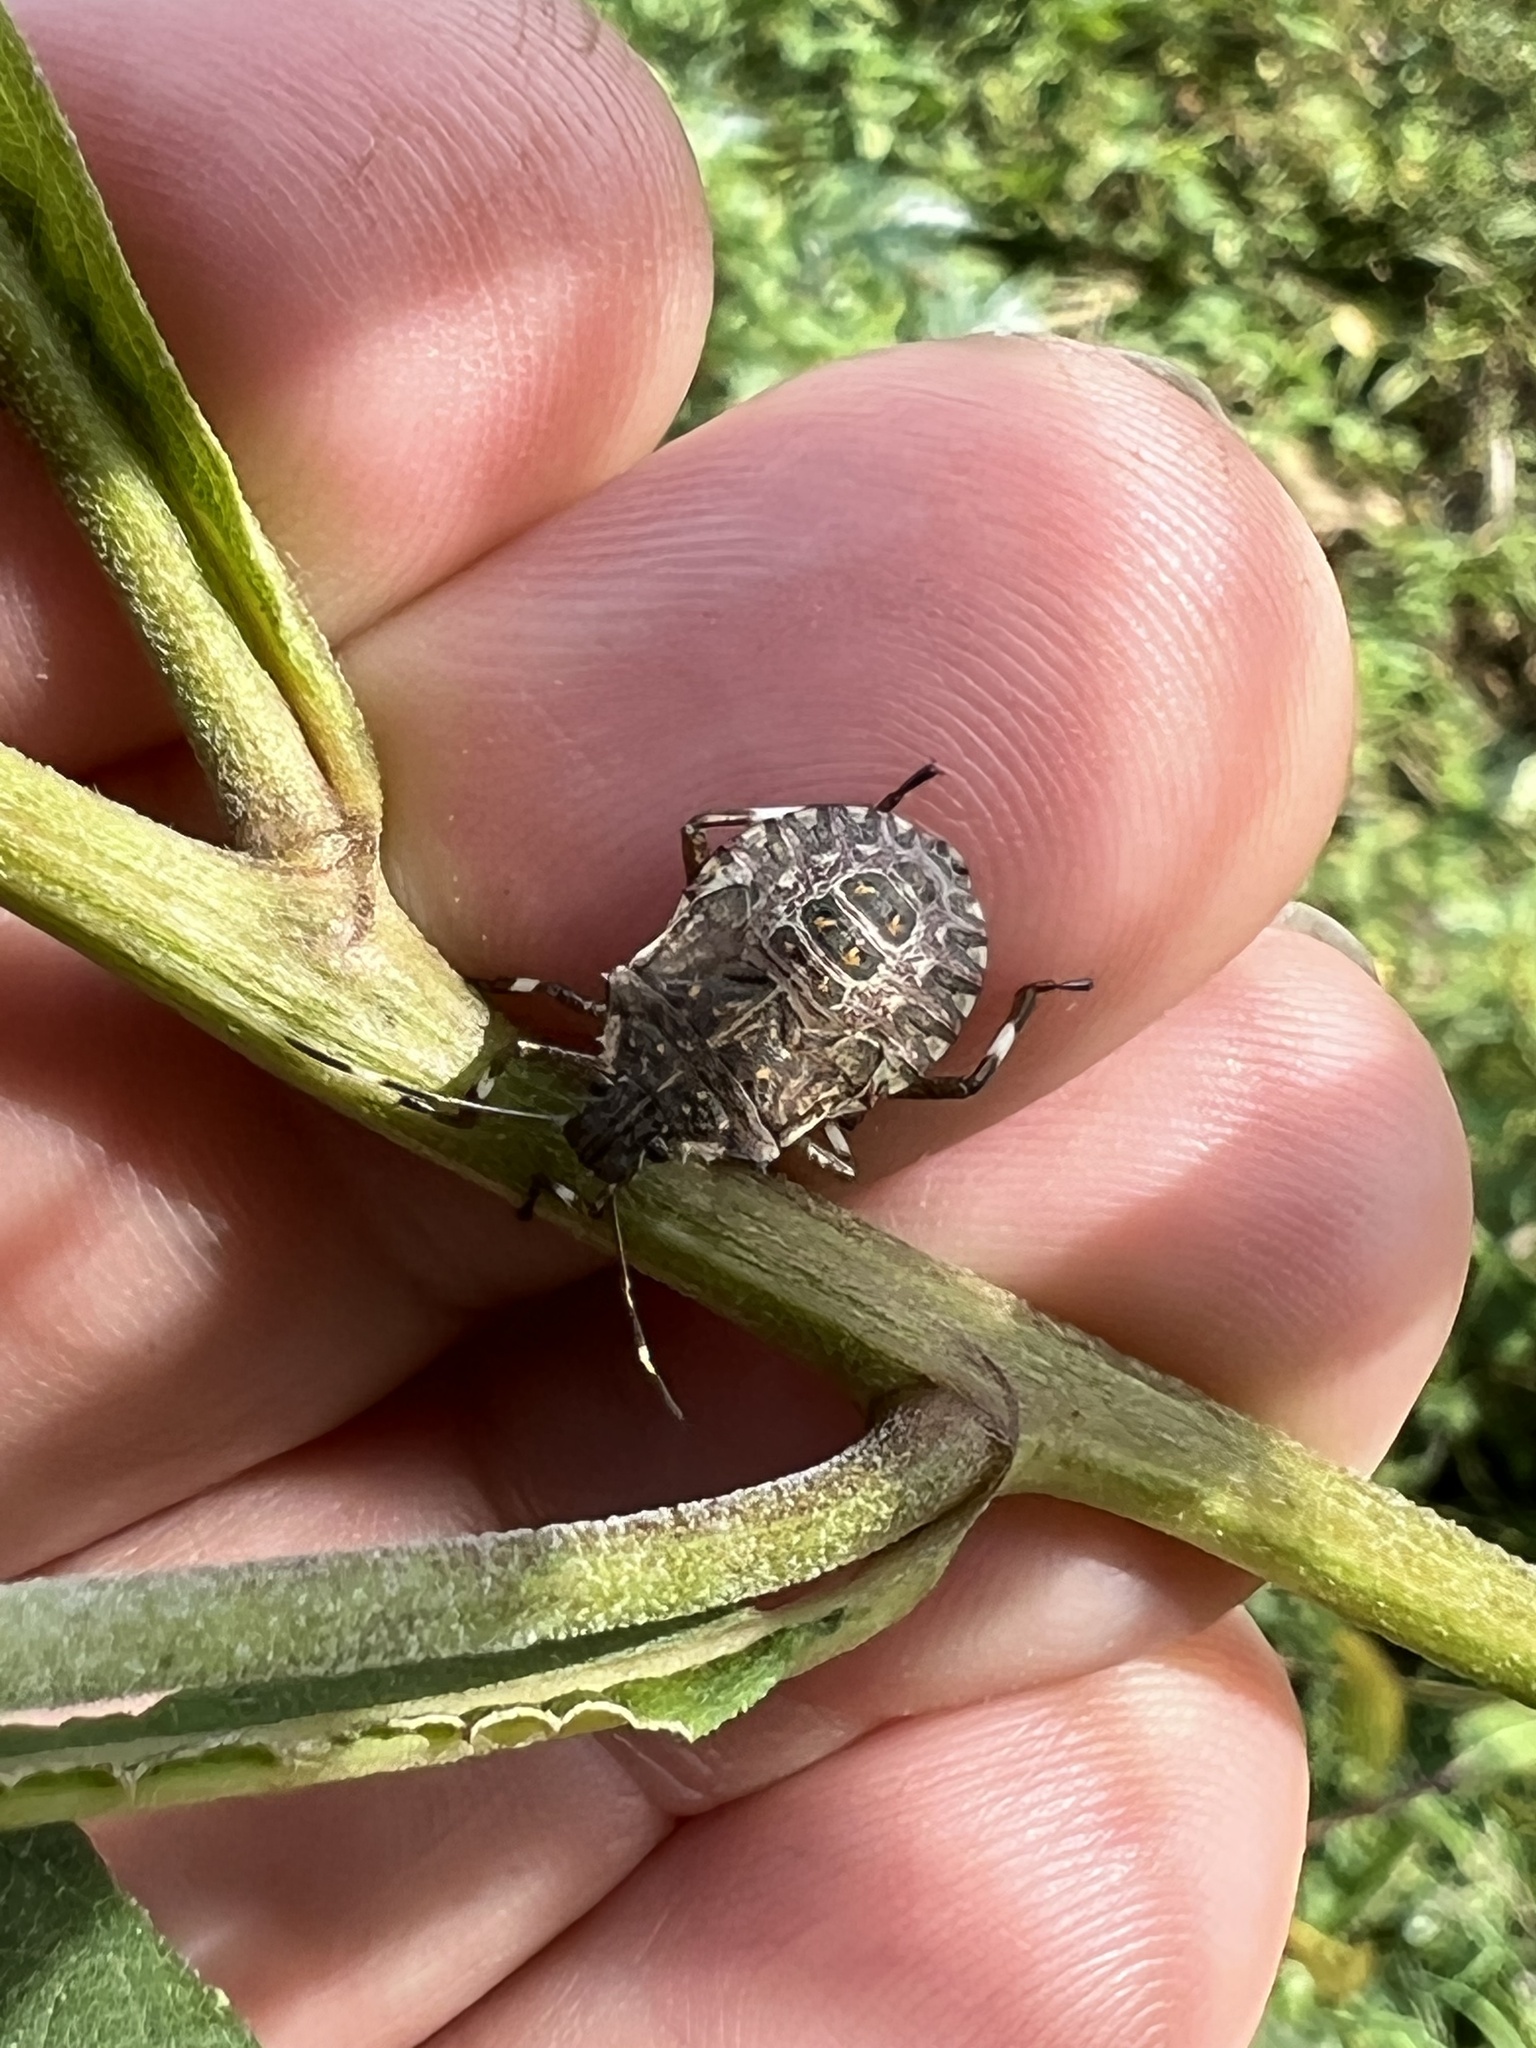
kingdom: Animalia
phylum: Arthropoda
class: Insecta
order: Hemiptera
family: Pentatomidae
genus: Halyomorpha
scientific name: Halyomorpha halys
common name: Brown marmorated stink bug
